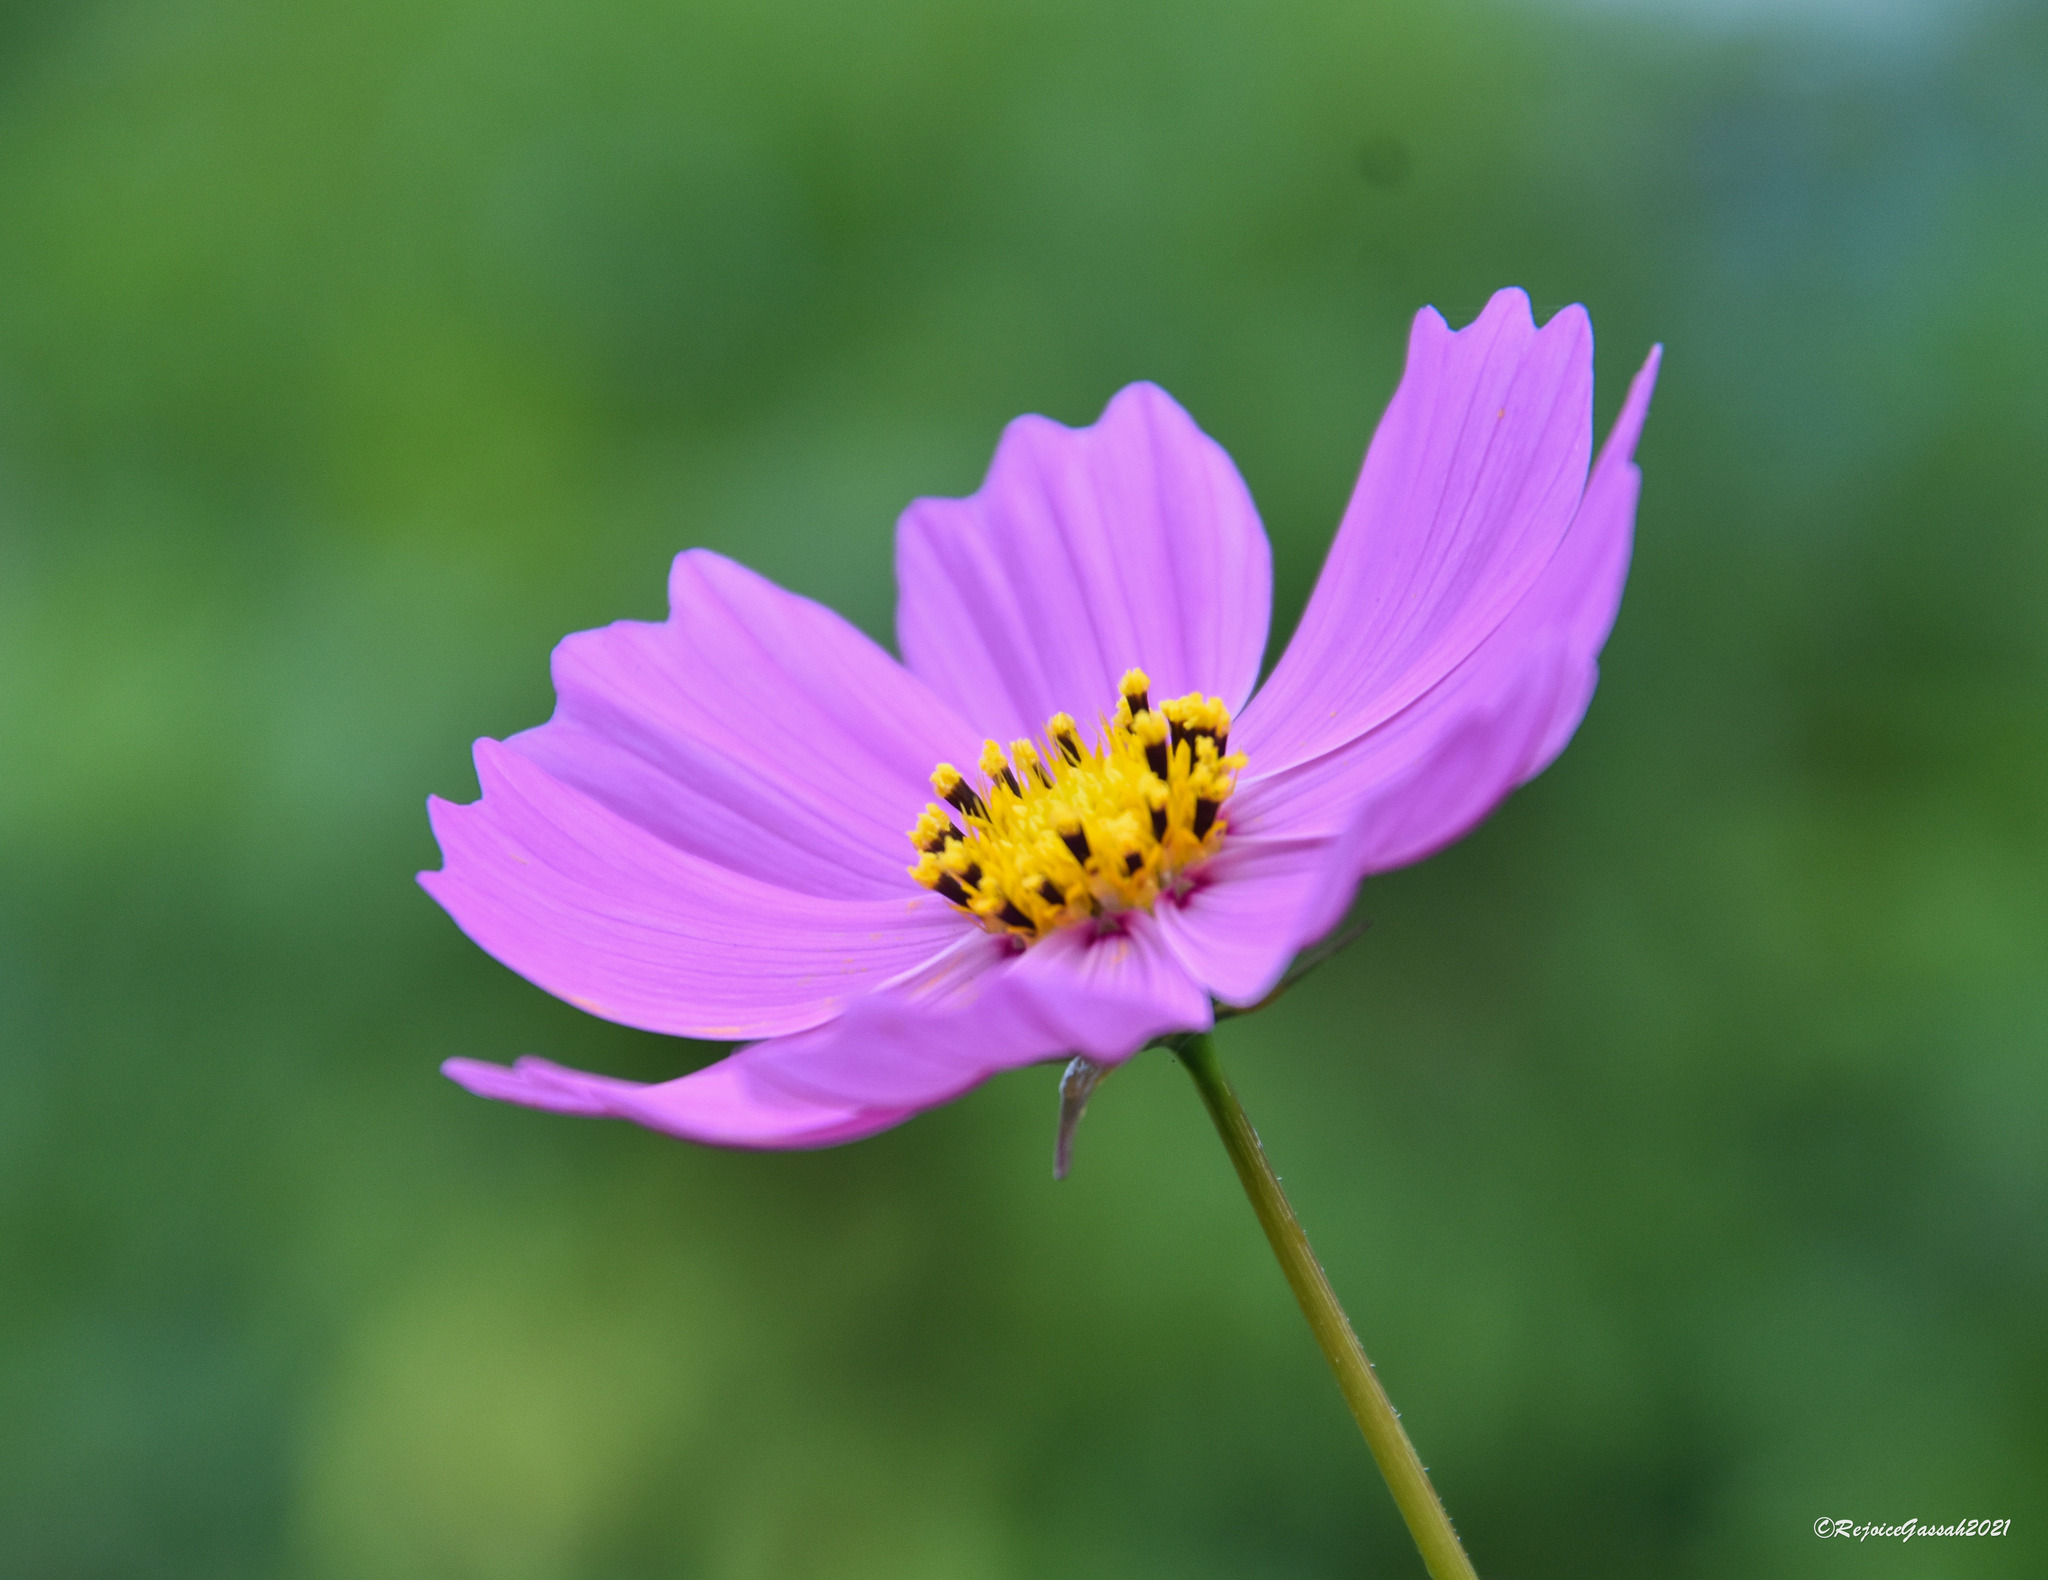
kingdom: Plantae
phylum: Tracheophyta
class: Magnoliopsida
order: Asterales
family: Asteraceae
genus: Cosmos
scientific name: Cosmos bipinnatus
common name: Garden cosmos
